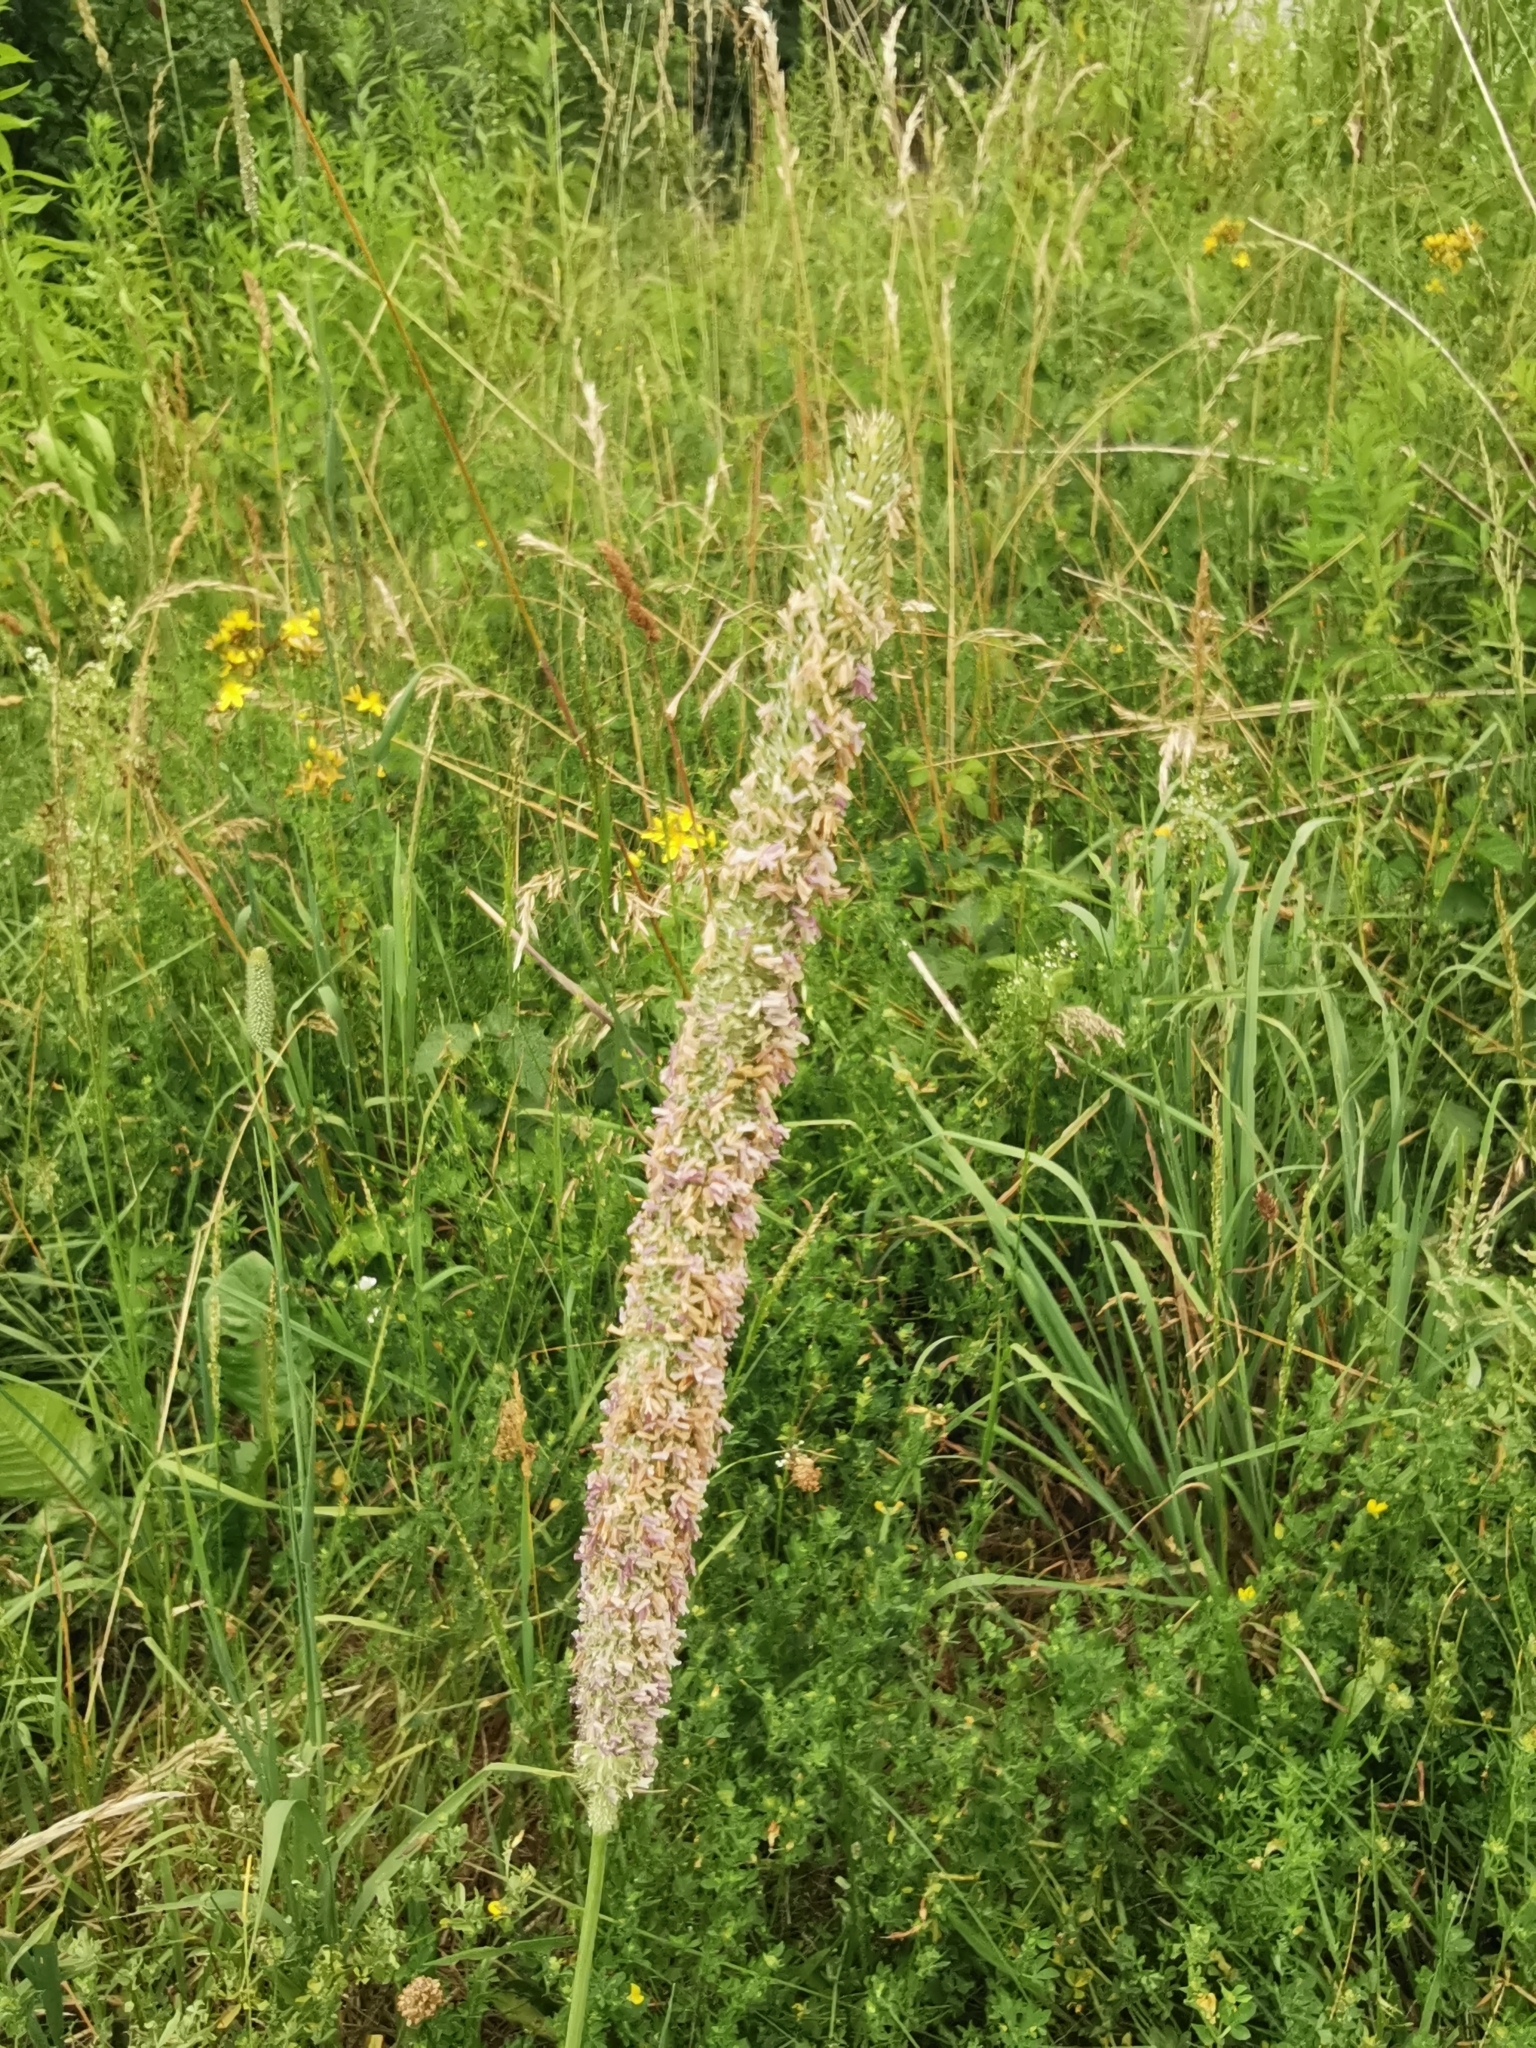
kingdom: Plantae
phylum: Tracheophyta
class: Liliopsida
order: Poales
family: Poaceae
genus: Phleum
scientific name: Phleum pratense
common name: Timothy grass
